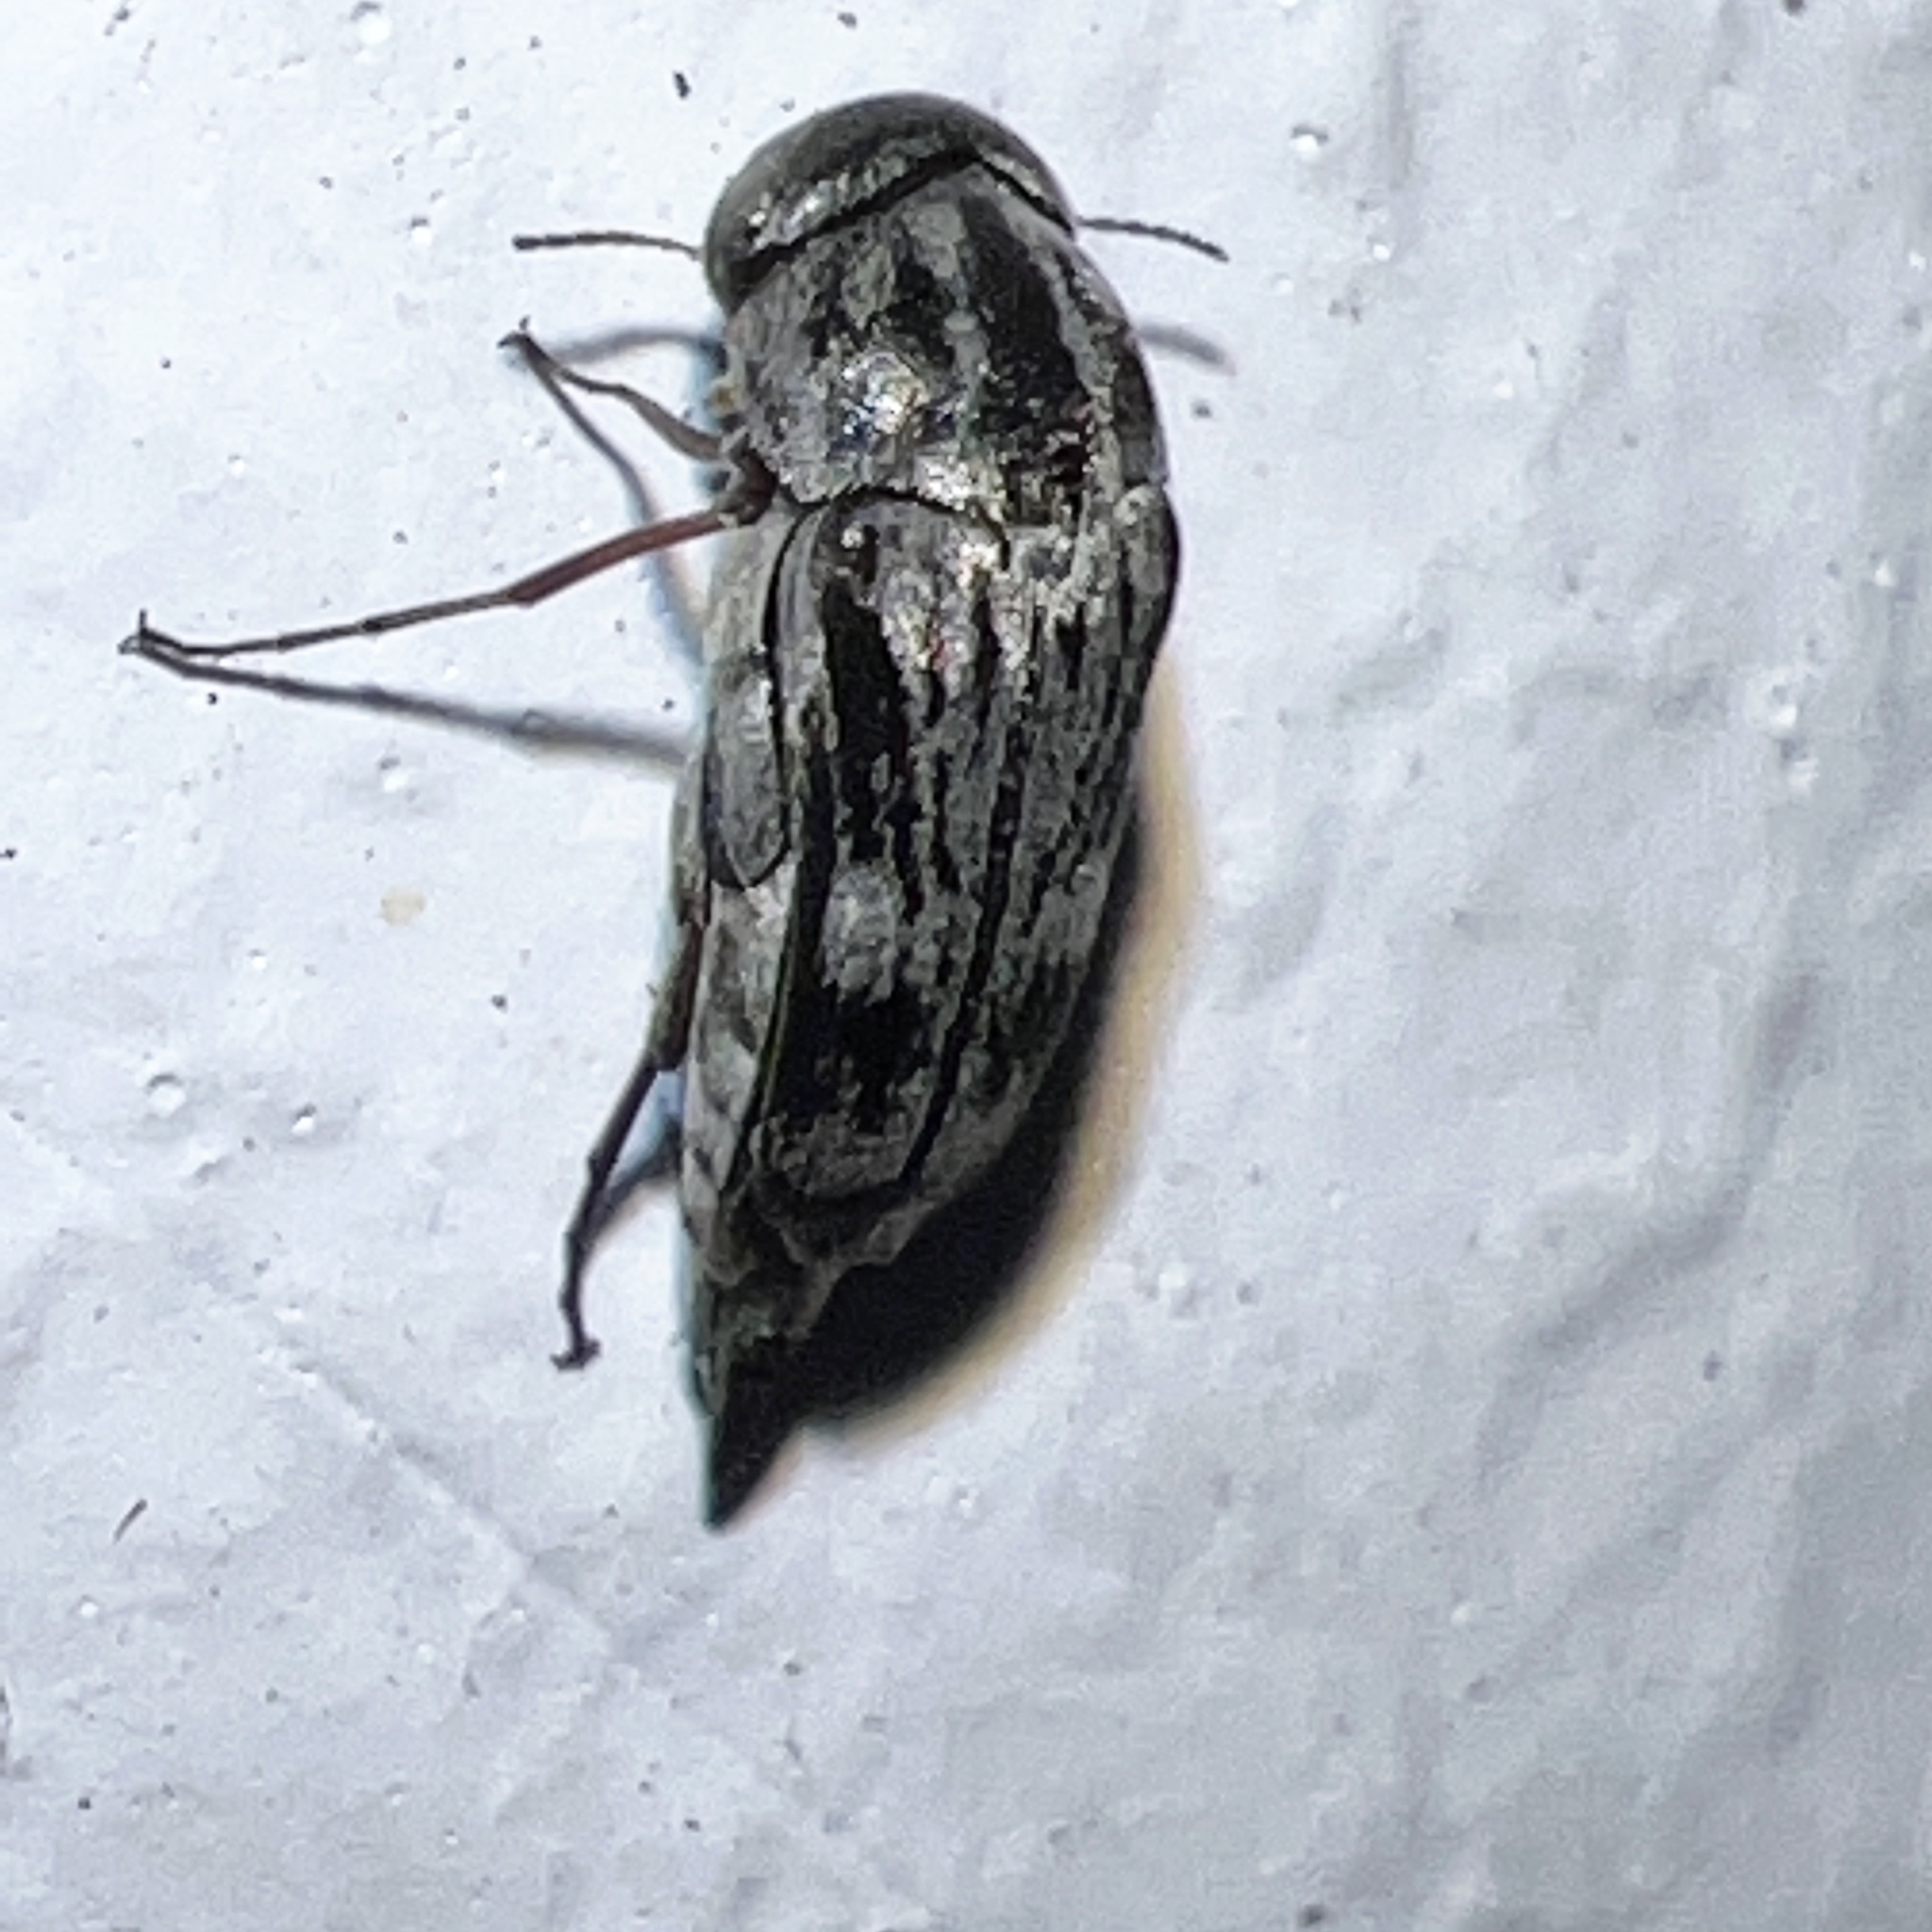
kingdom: Animalia
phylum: Arthropoda
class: Insecta
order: Coleoptera
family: Mordellidae
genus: Tomoxia
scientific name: Tomoxia lineella
